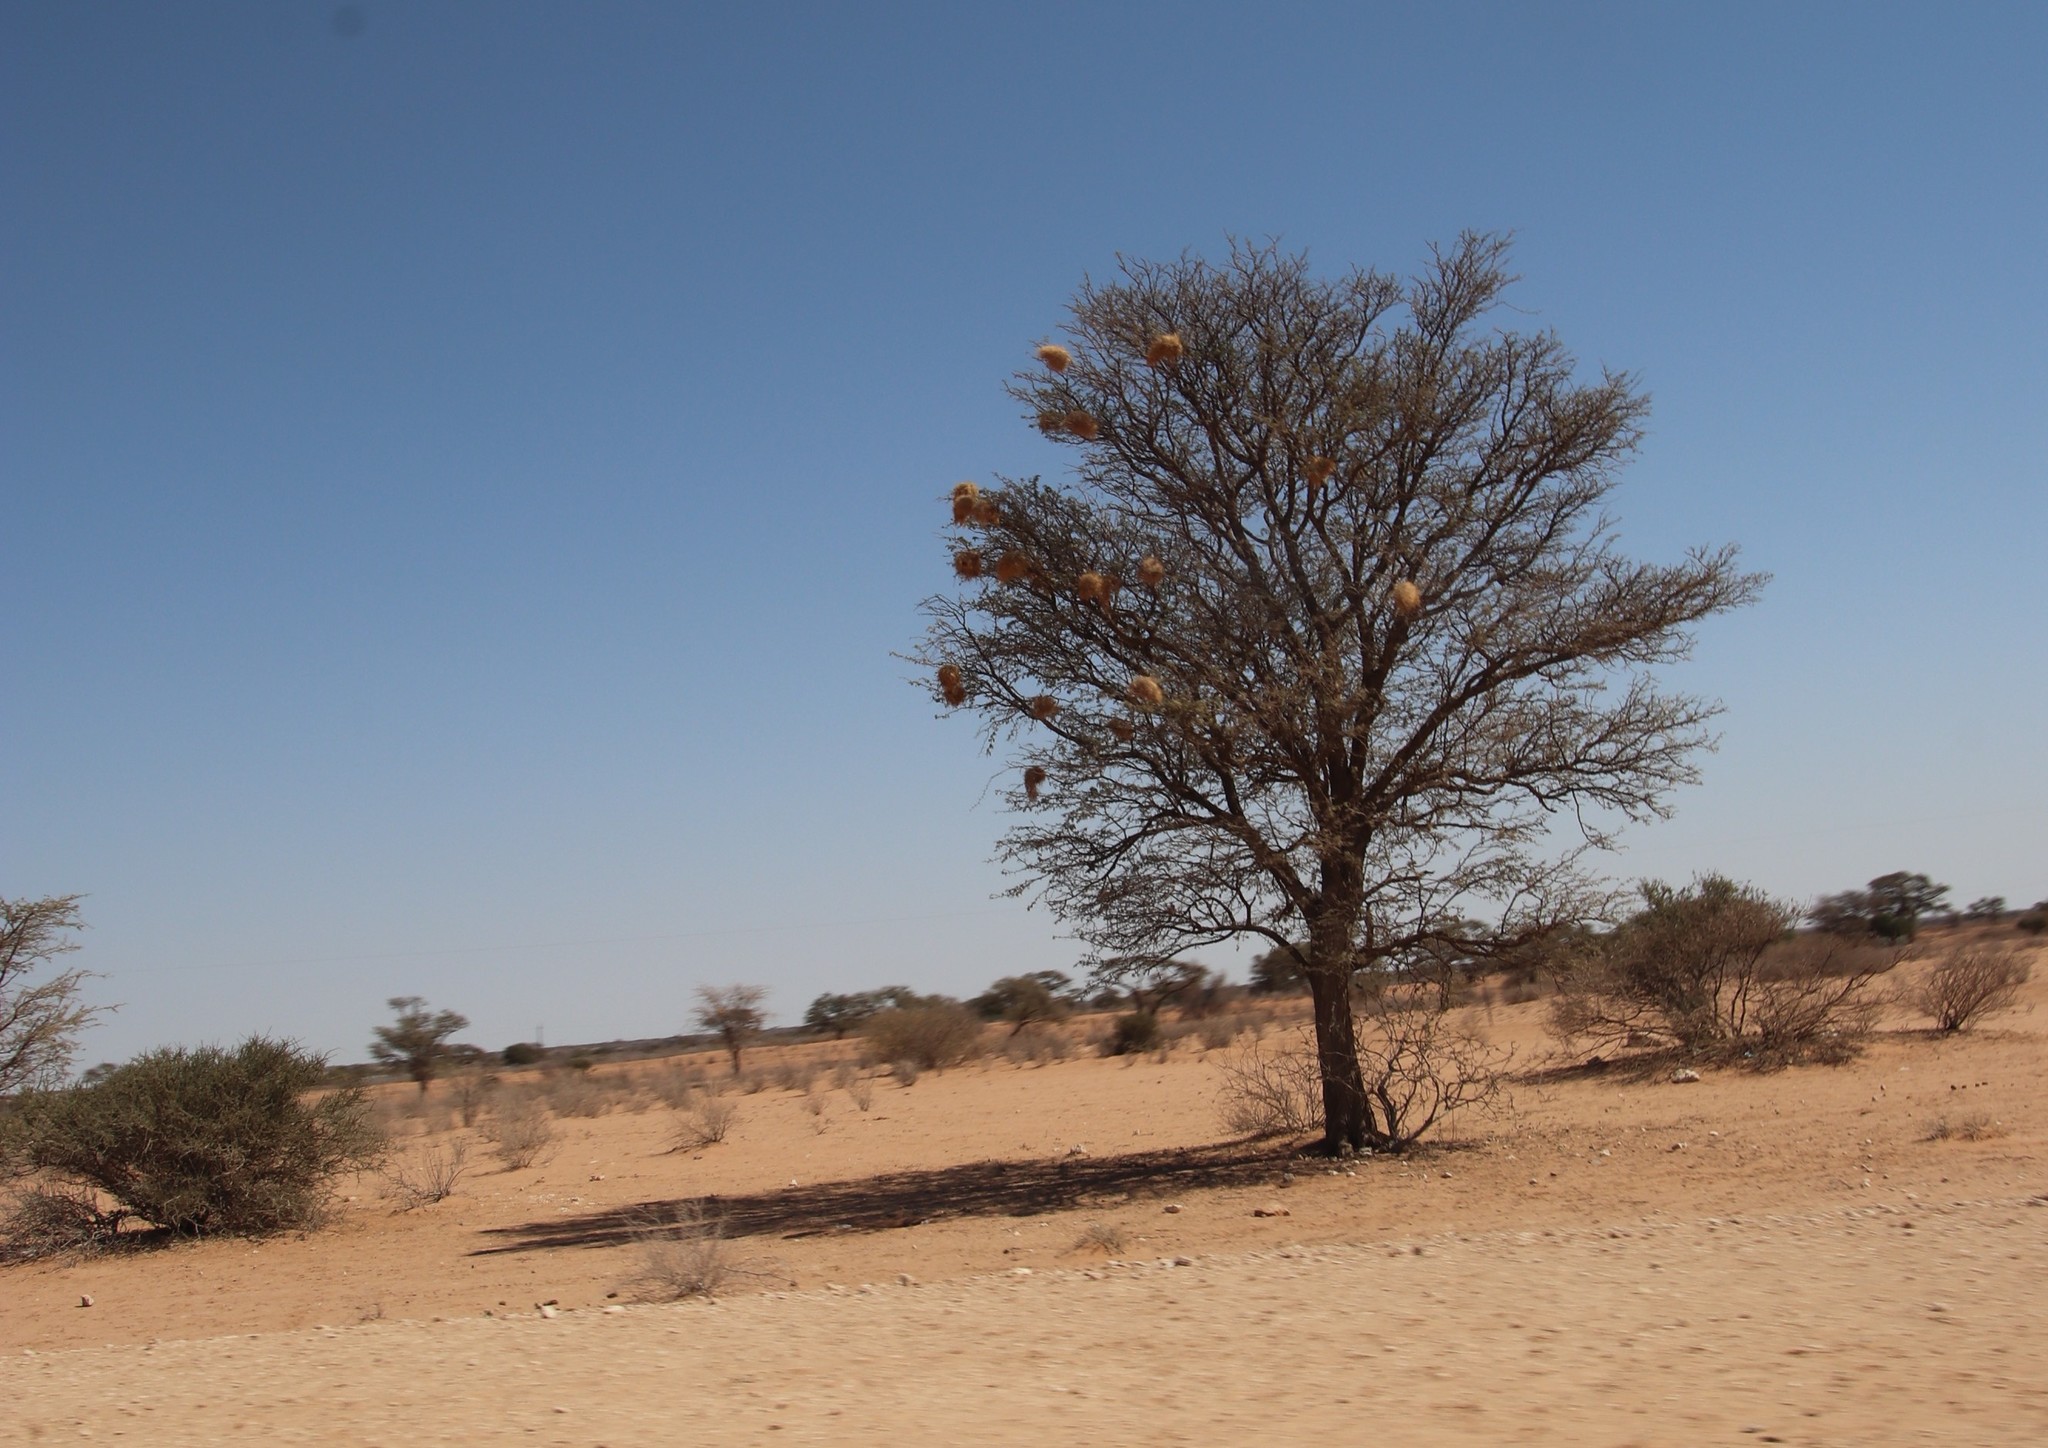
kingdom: Animalia
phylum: Chordata
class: Aves
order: Passeriformes
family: Passeridae
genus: Plocepasser
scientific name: Plocepasser mahali
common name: White-browed sparrow-weaver
